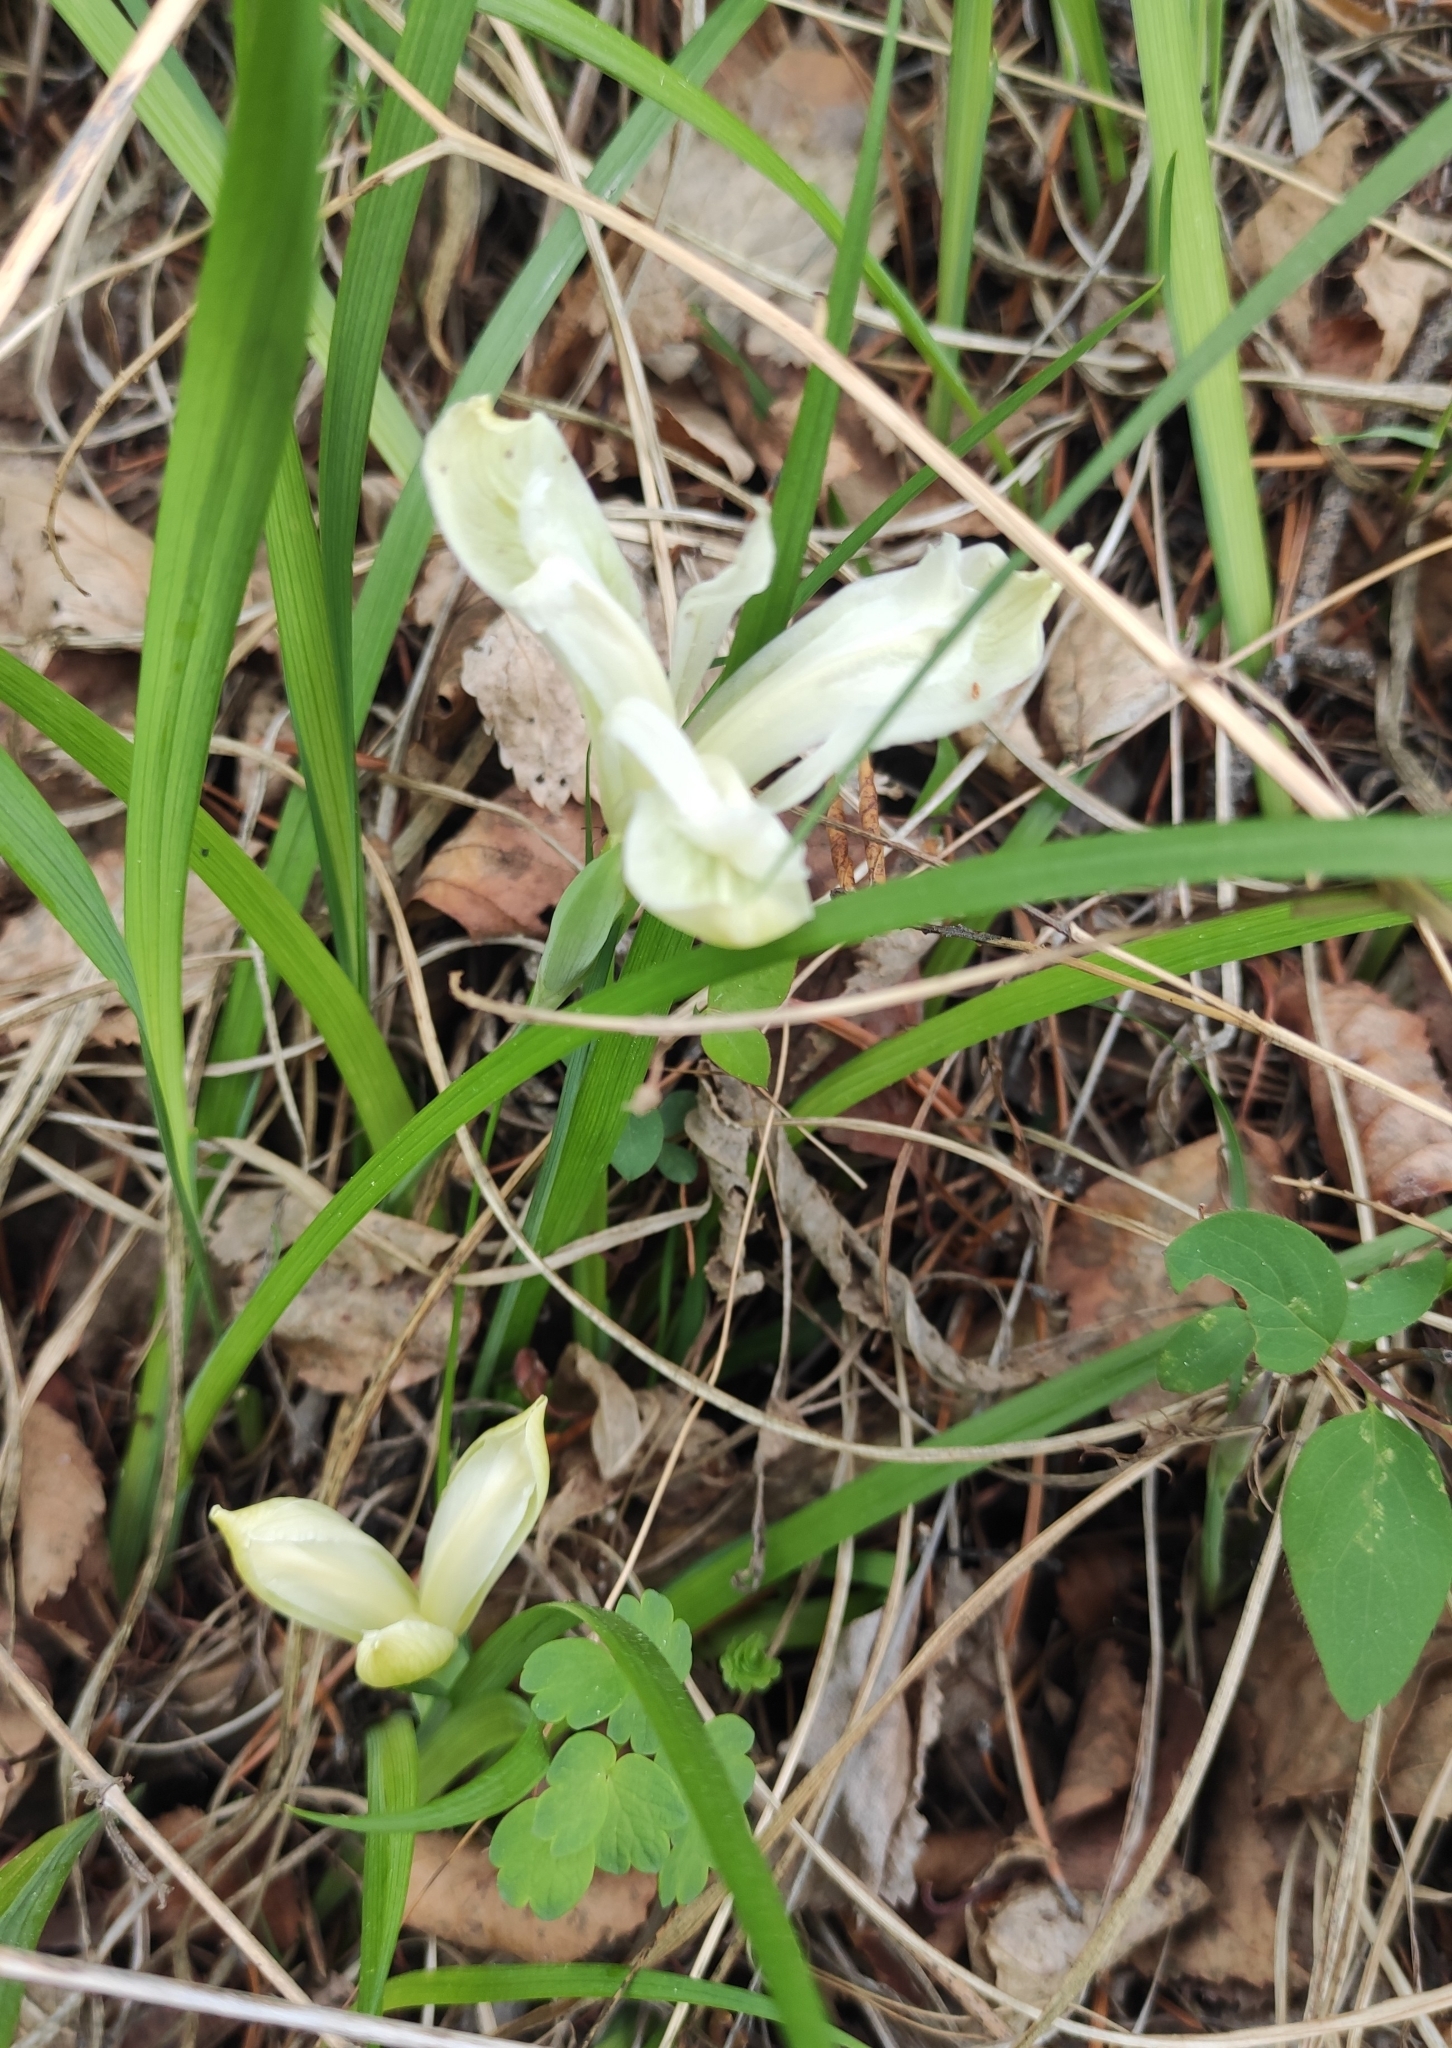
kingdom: Plantae
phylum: Tracheophyta
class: Liliopsida
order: Asparagales
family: Iridaceae
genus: Iris
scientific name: Iris ruthenica
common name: Purple-bract iris
